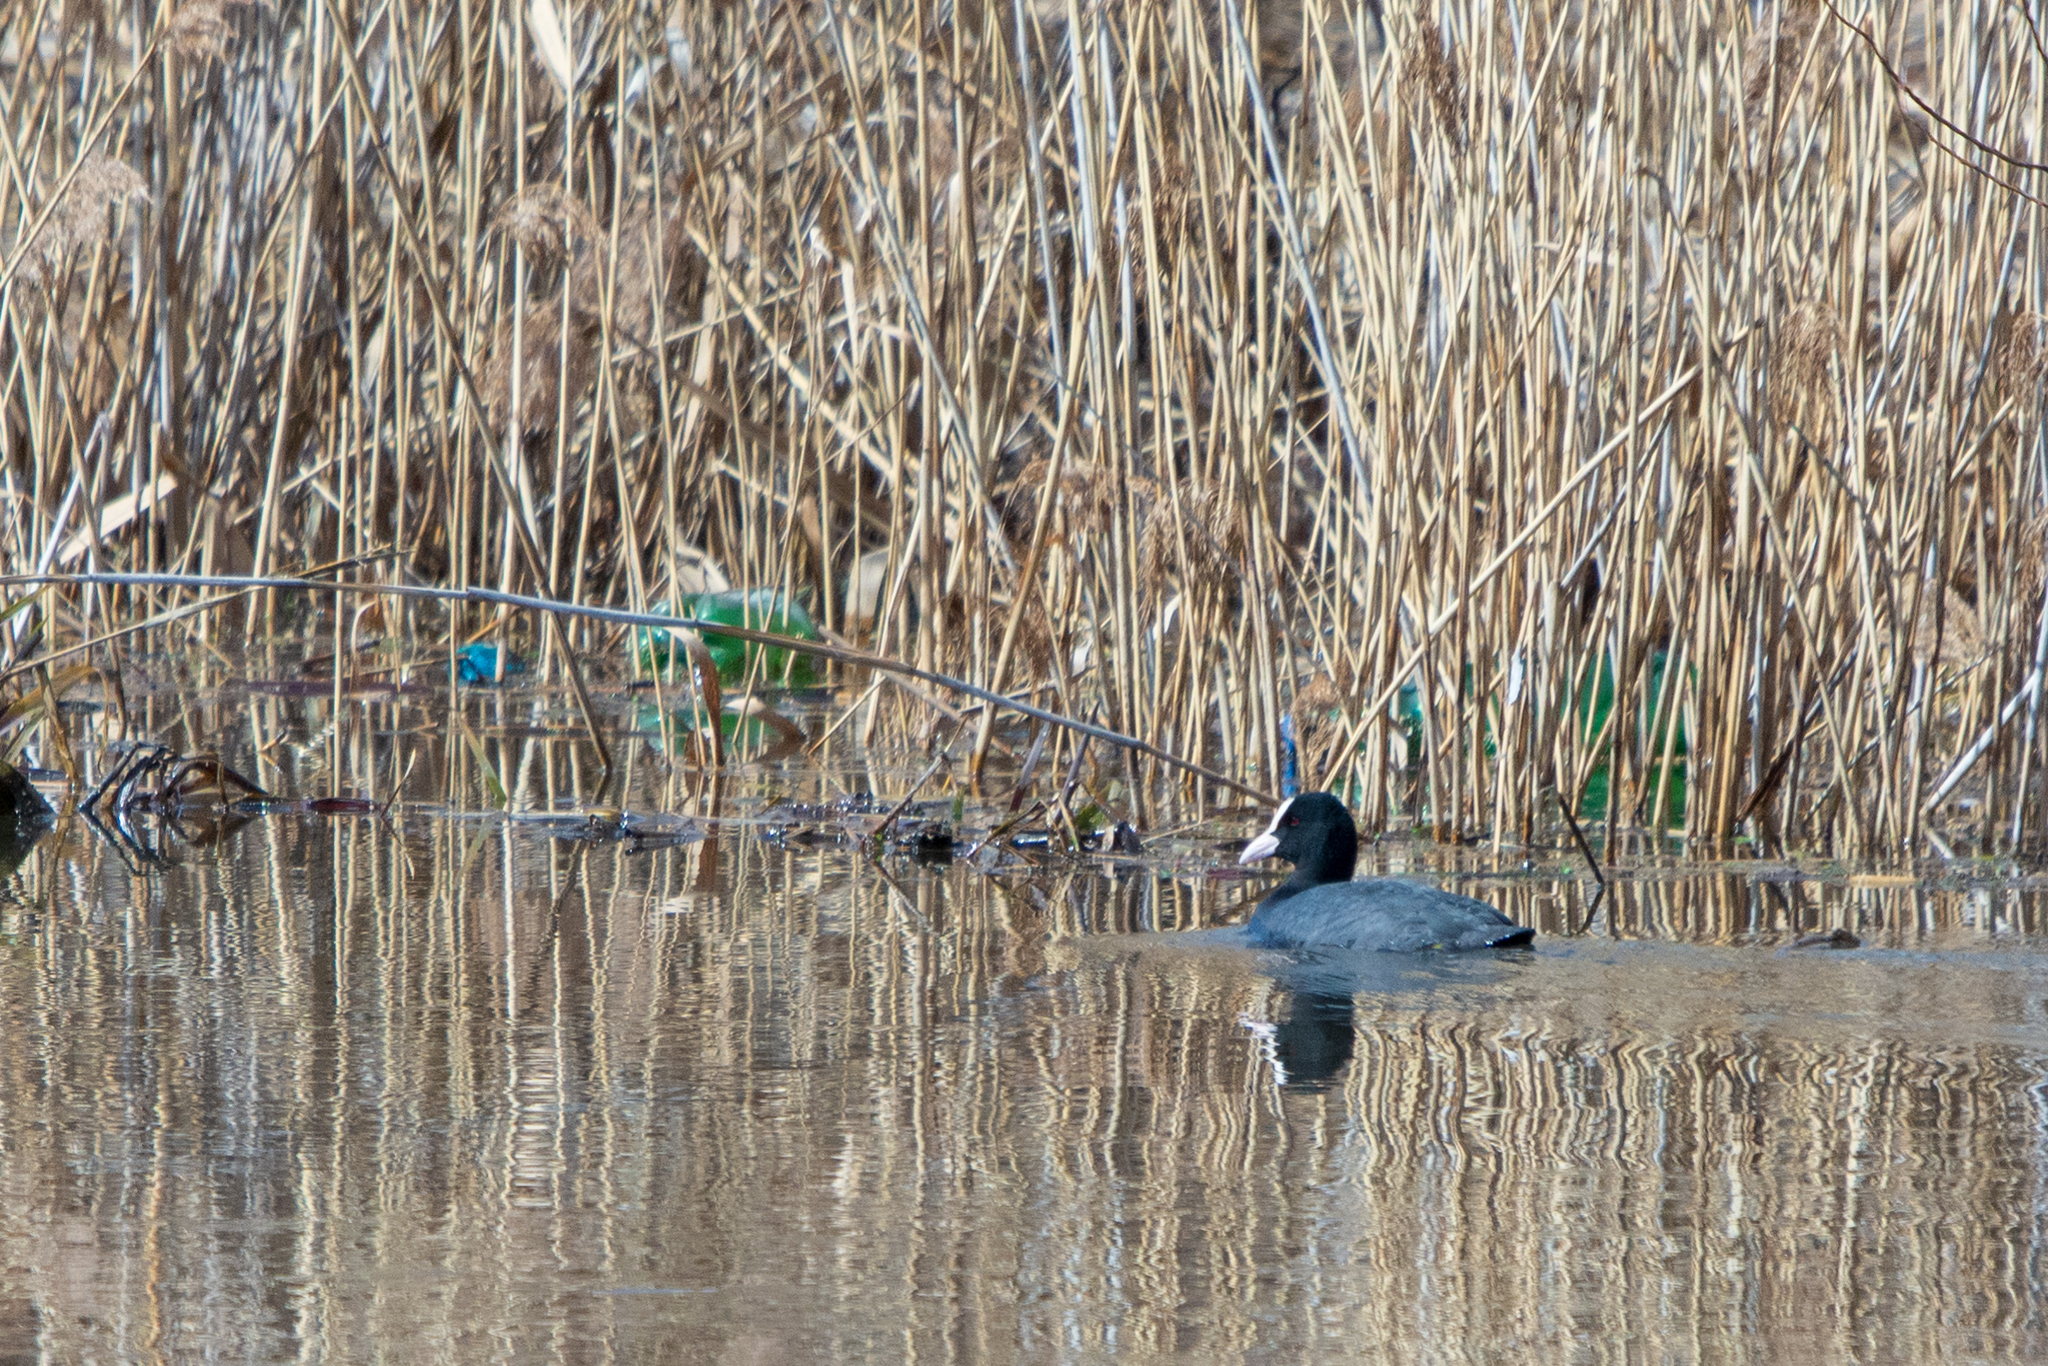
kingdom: Animalia
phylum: Chordata
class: Aves
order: Gruiformes
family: Rallidae
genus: Fulica
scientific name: Fulica atra
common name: Eurasian coot
